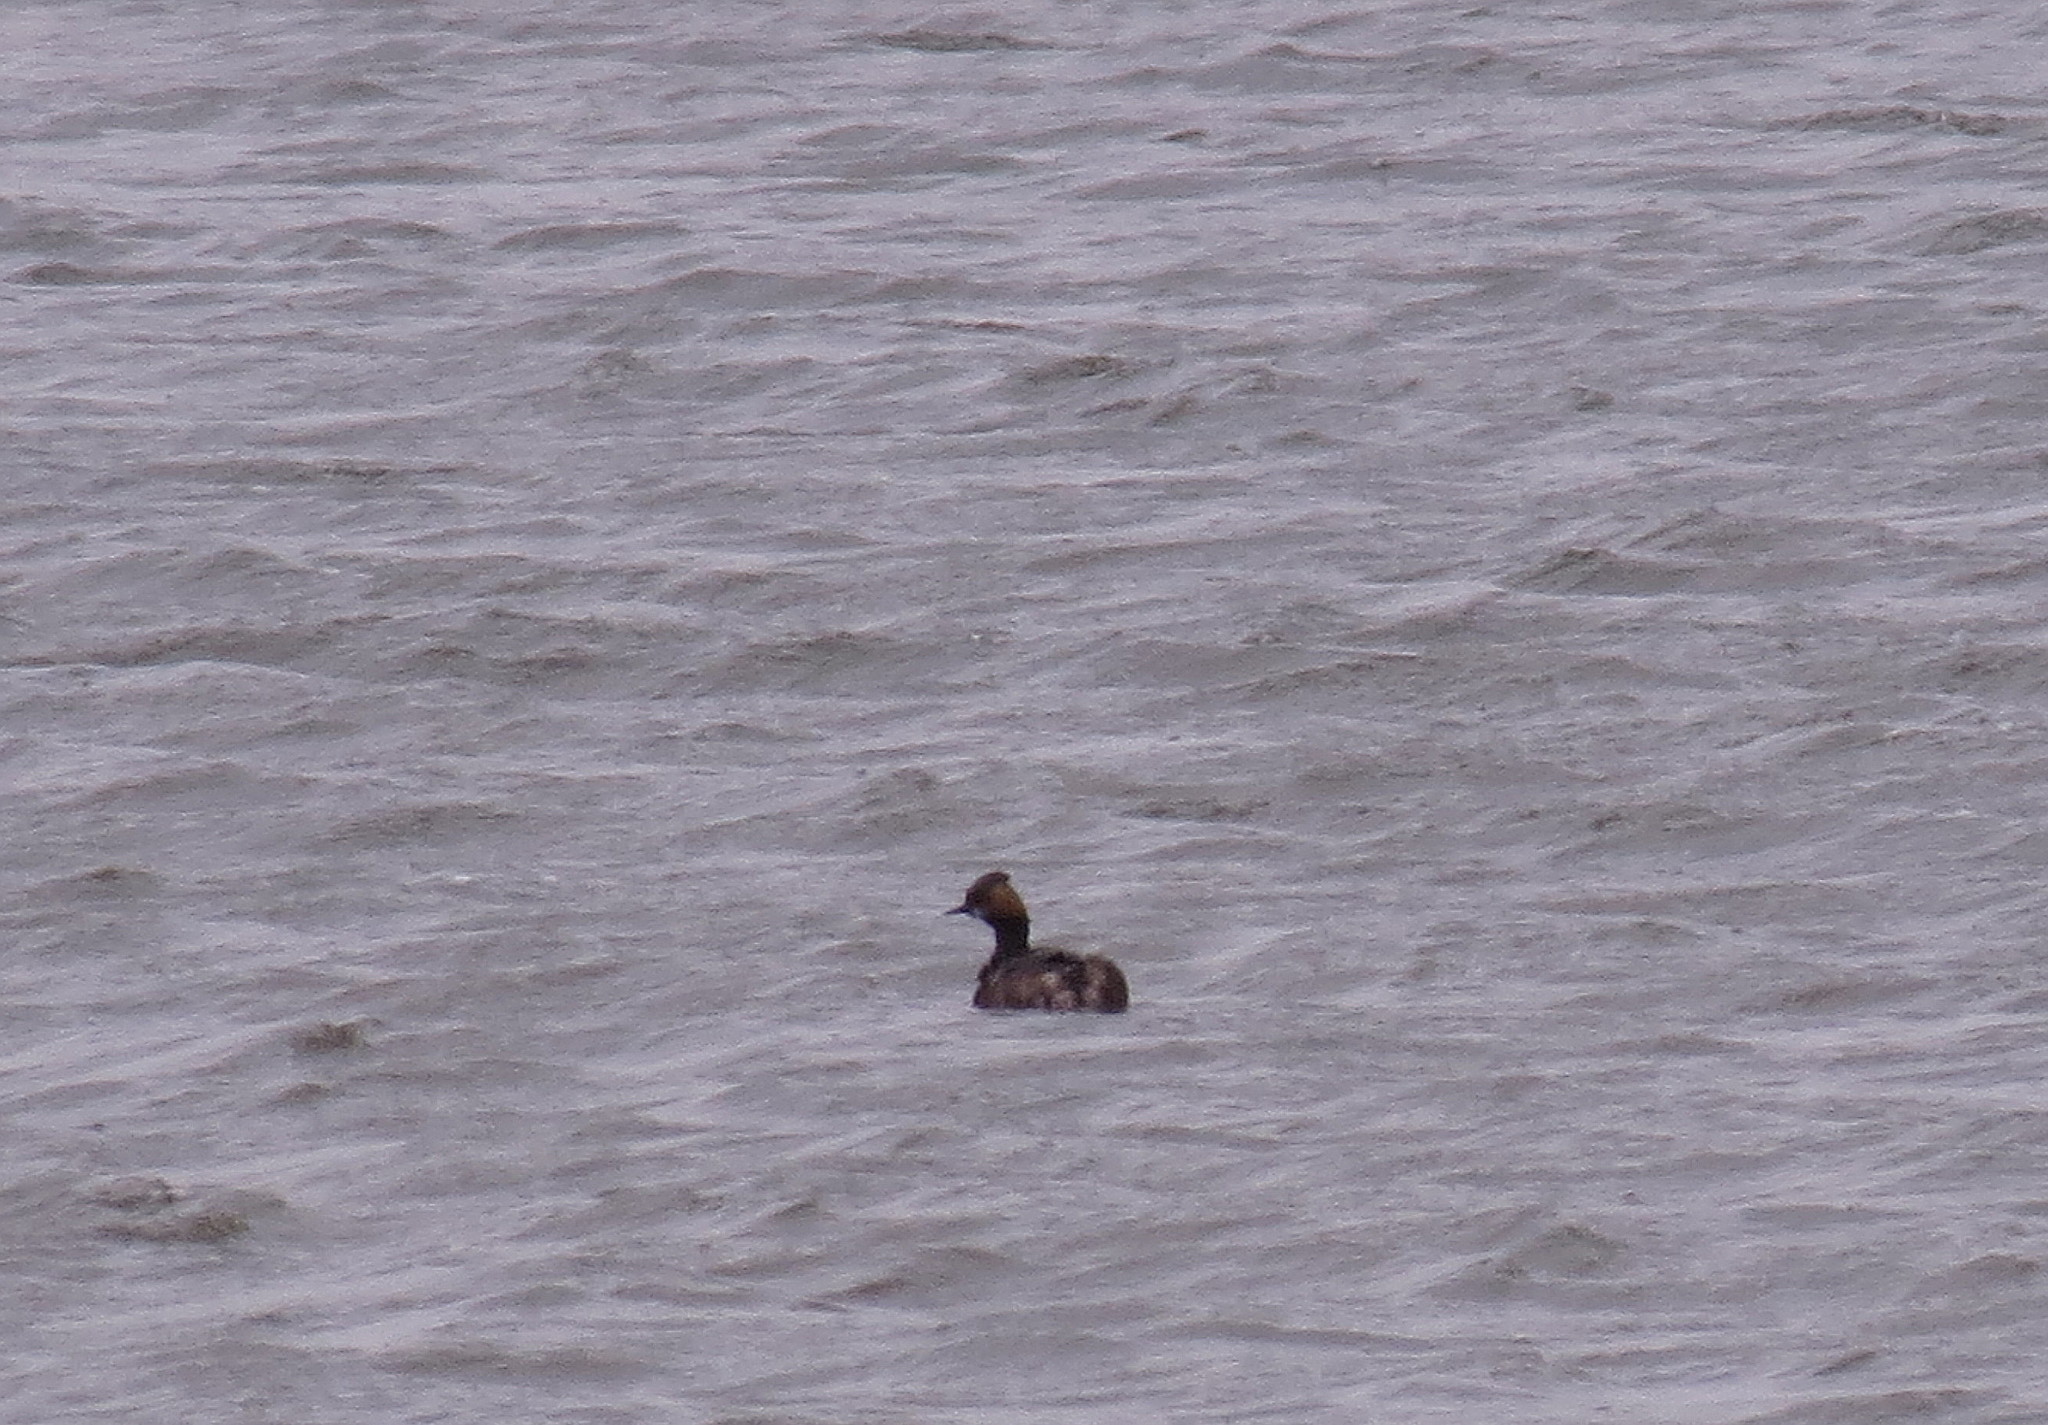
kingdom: Animalia
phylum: Chordata
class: Aves
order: Podicipediformes
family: Podicipedidae
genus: Podiceps
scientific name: Podiceps nigricollis
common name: Black-necked grebe
